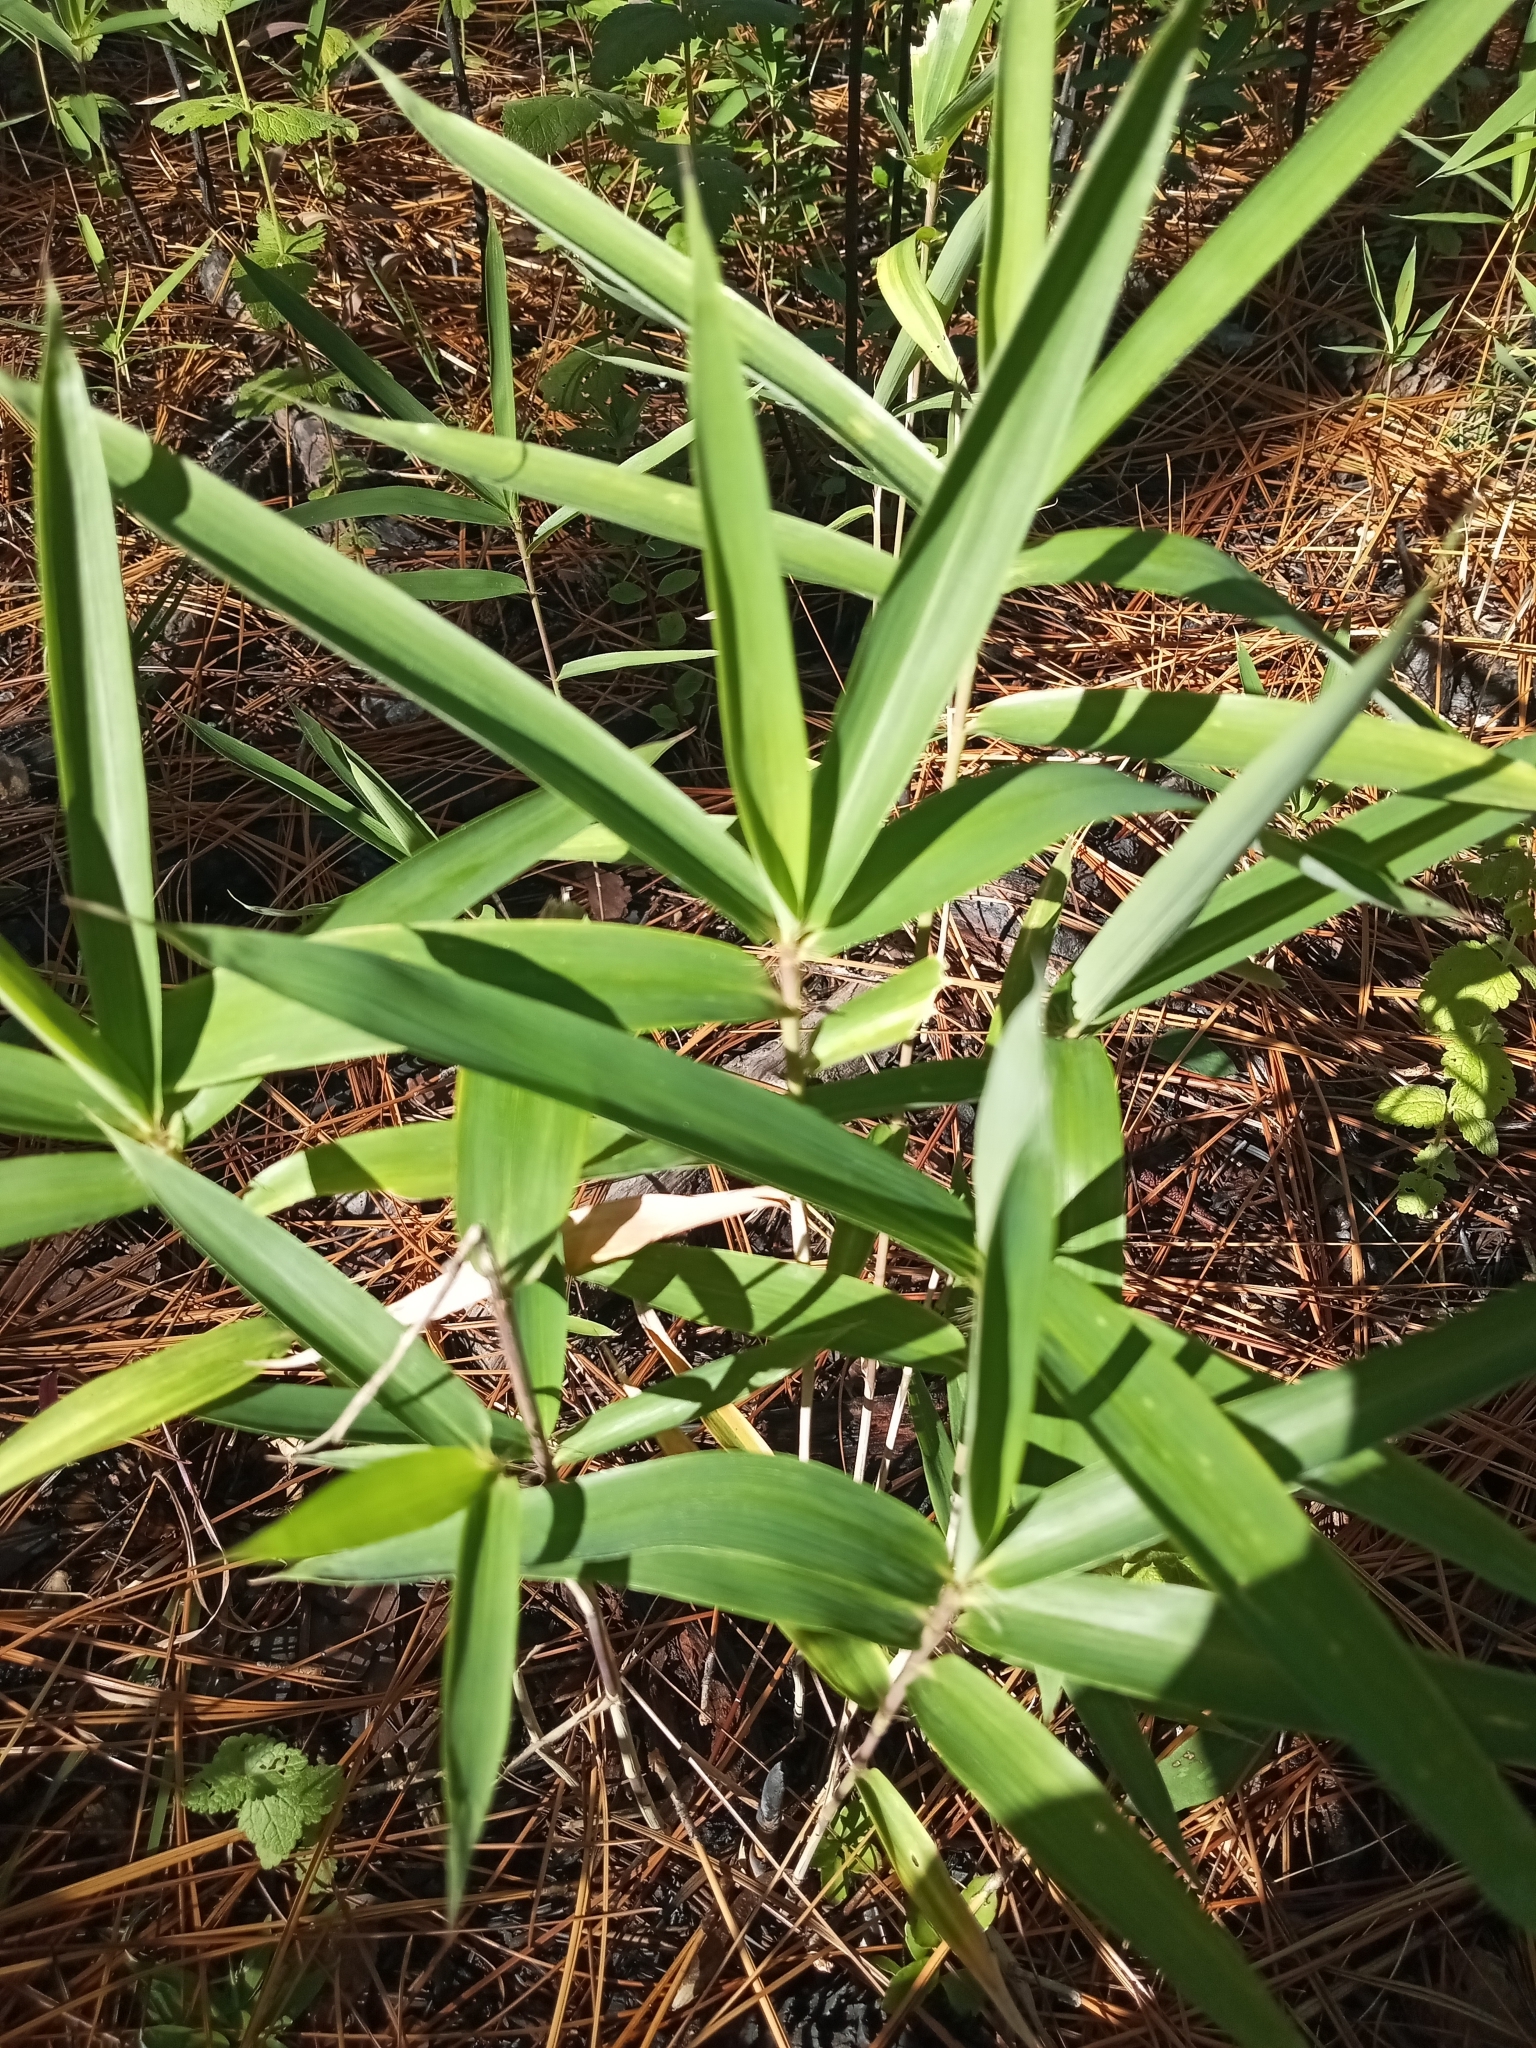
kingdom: Plantae
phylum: Tracheophyta
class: Liliopsida
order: Poales
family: Poaceae
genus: Arundinaria
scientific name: Arundinaria tecta
